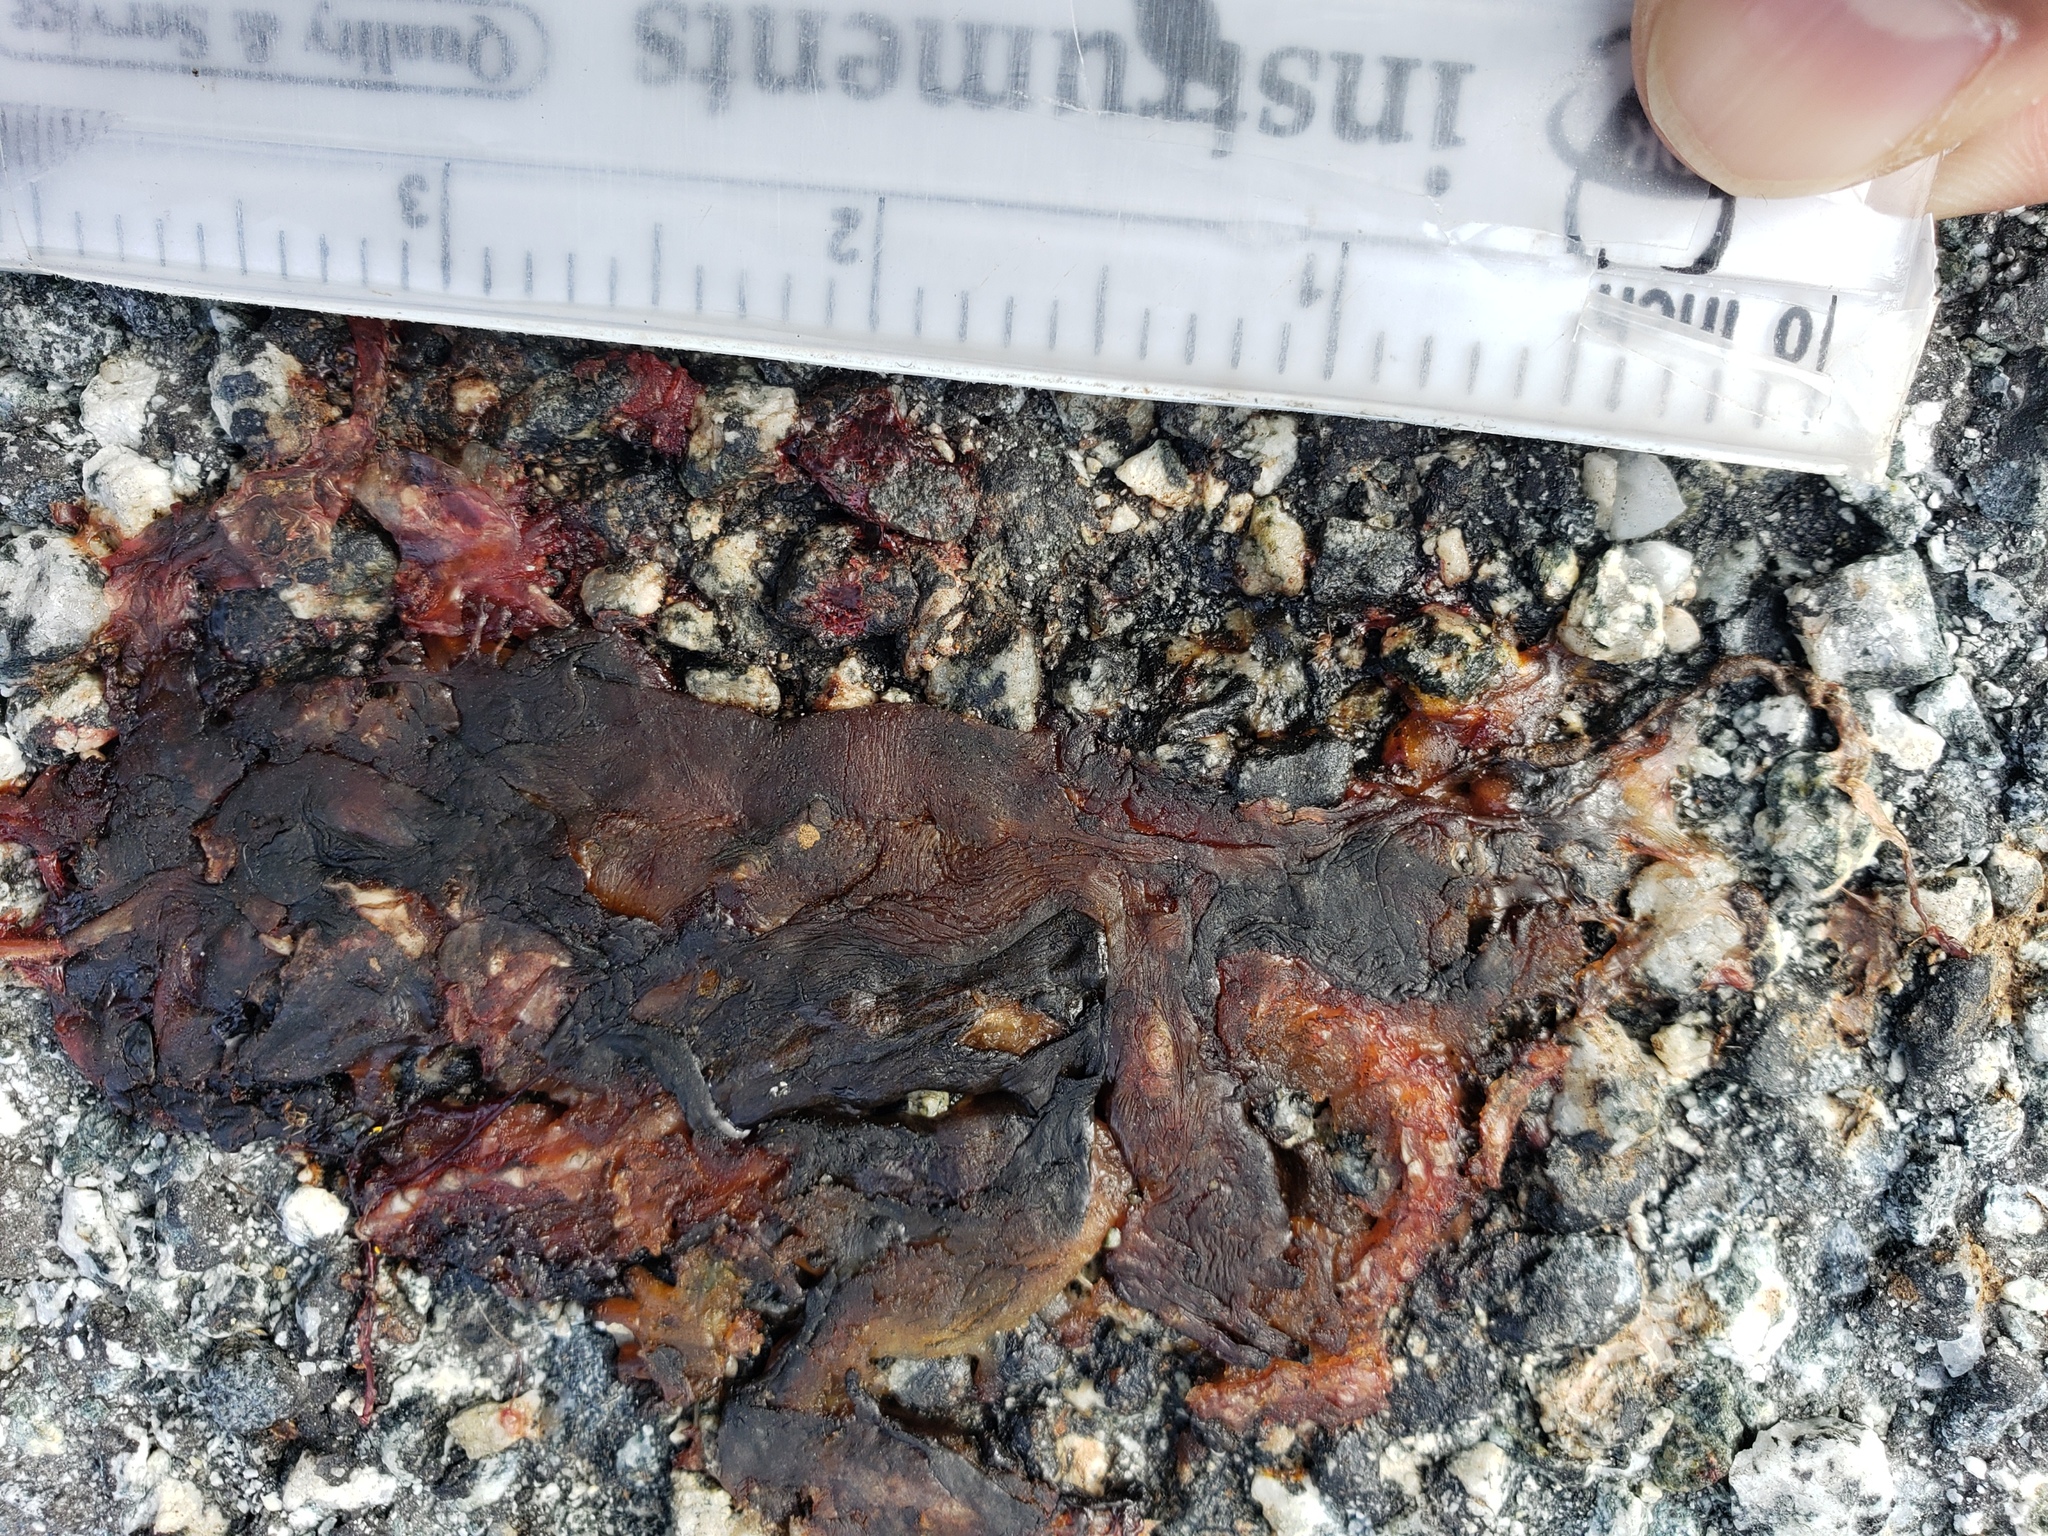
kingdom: Animalia
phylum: Chordata
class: Amphibia
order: Caudata
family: Salamandridae
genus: Taricha
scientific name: Taricha
